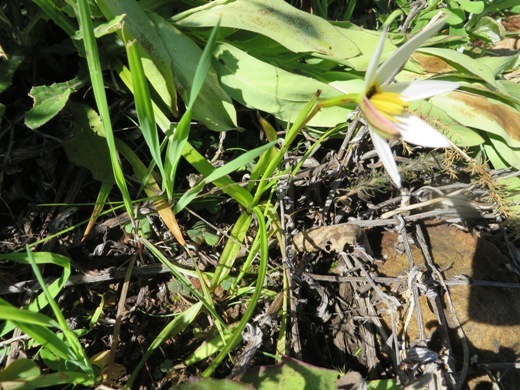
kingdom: Plantae
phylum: Tracheophyta
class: Liliopsida
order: Asparagales
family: Hypoxidaceae
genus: Pauridia
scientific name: Pauridia capensis
